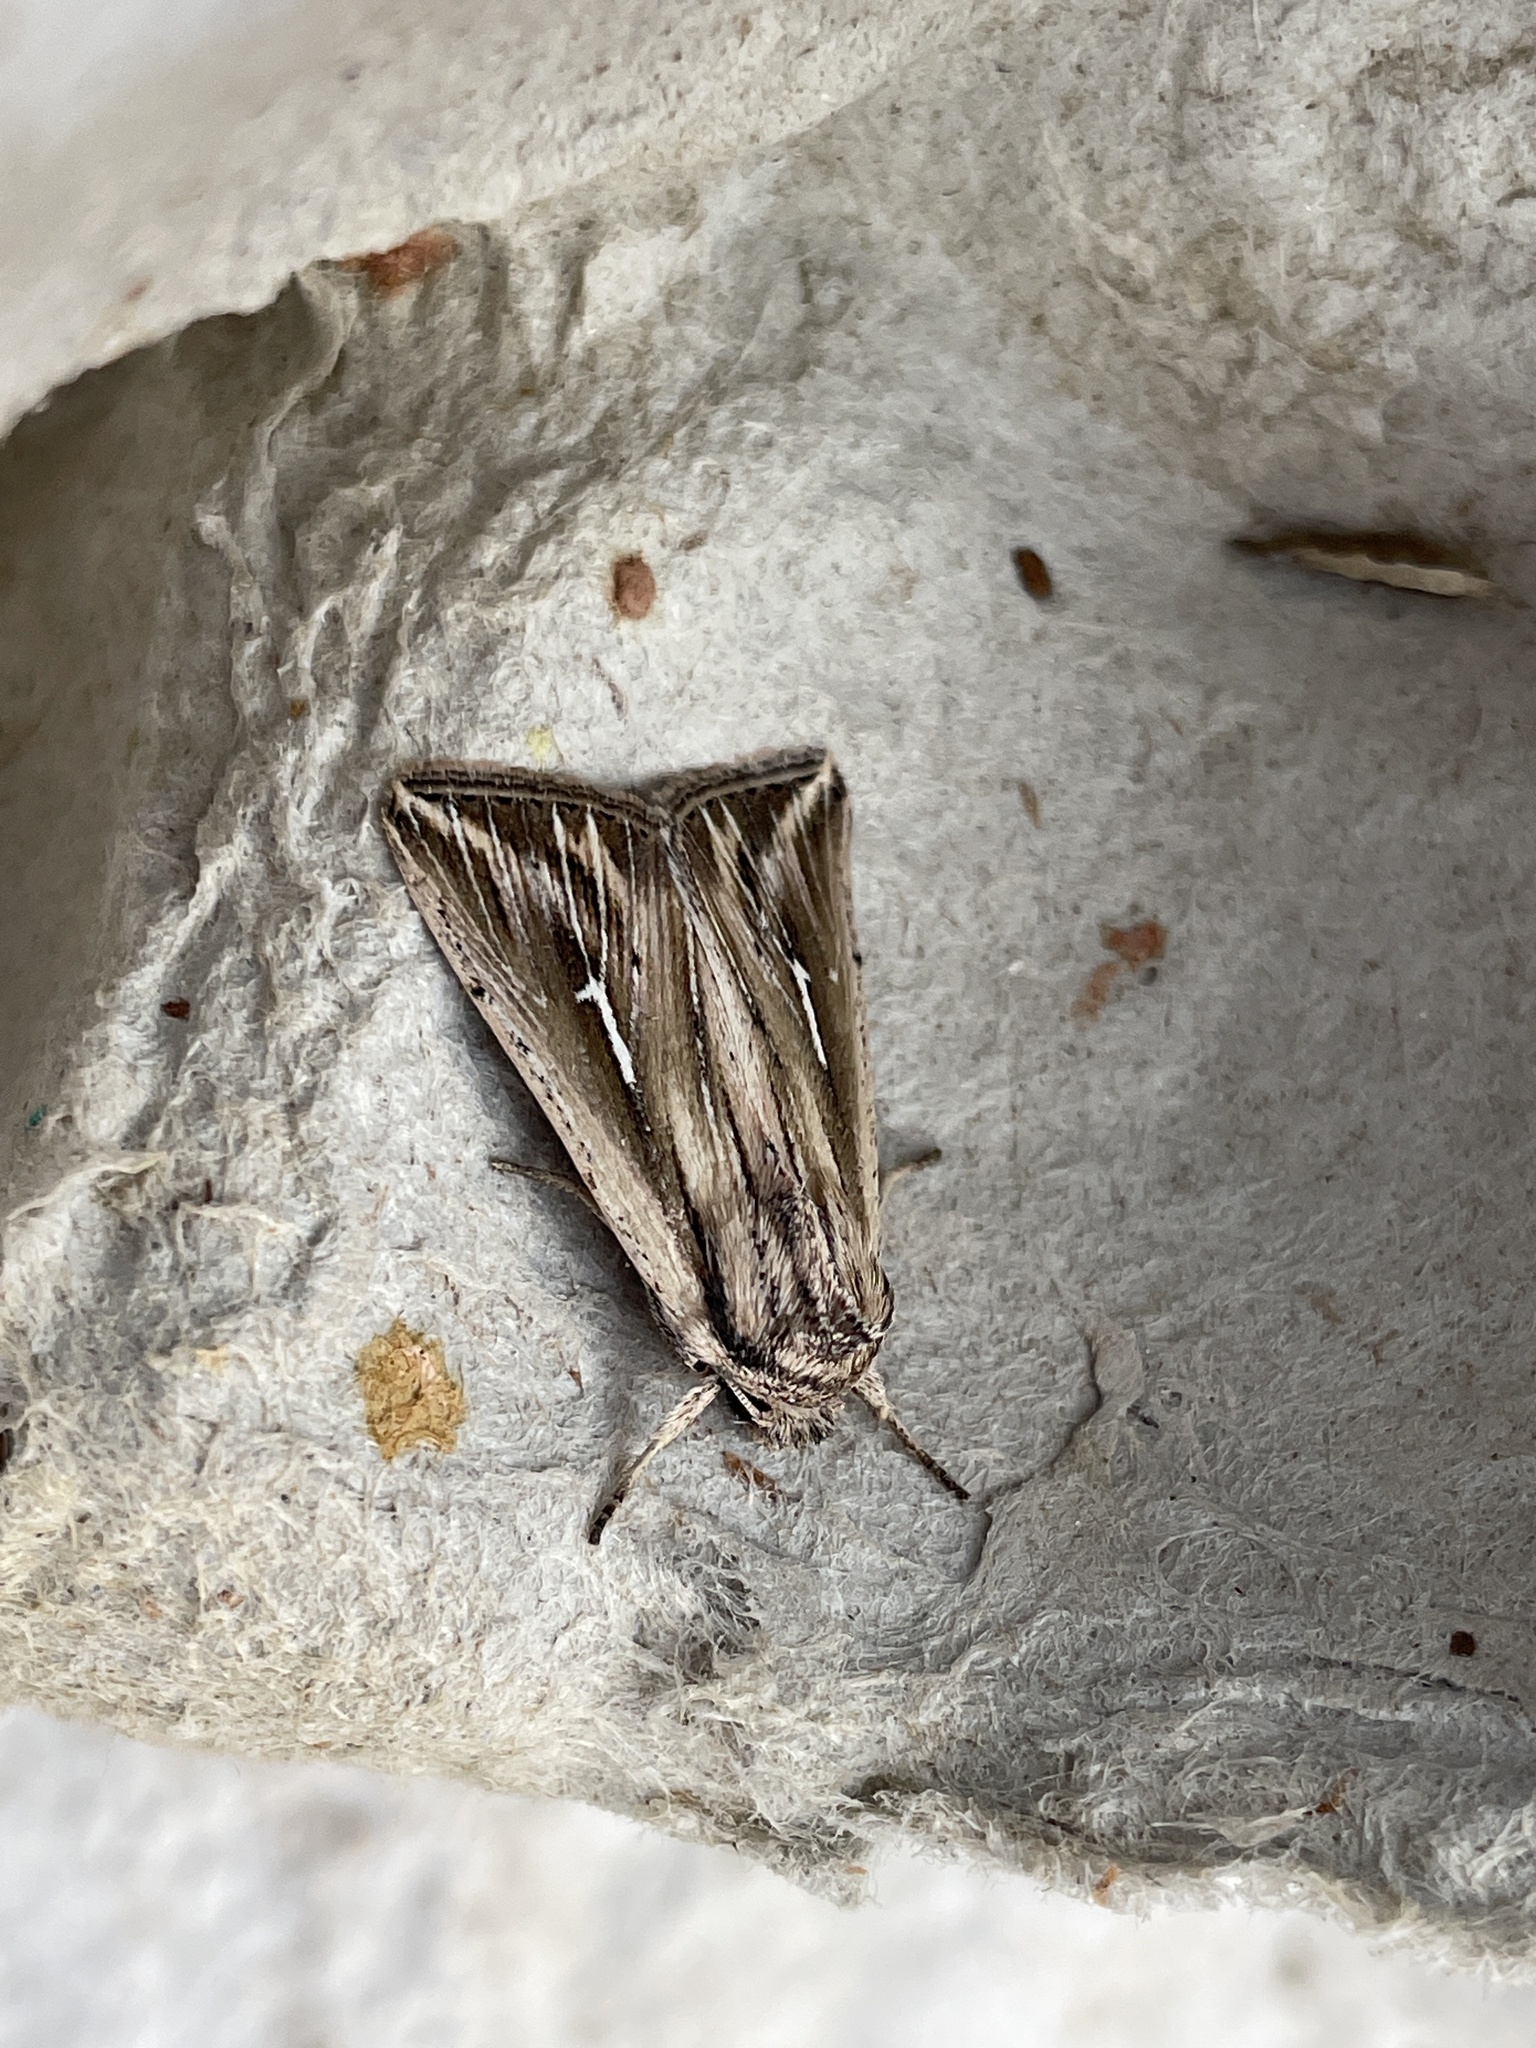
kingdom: Animalia
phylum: Arthropoda
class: Insecta
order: Lepidoptera
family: Noctuidae
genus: Mythimna
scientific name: Mythimna l-album
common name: L-album wainscot
